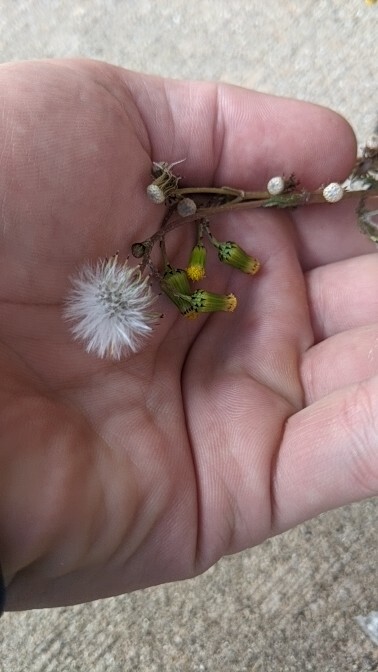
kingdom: Plantae
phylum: Tracheophyta
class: Magnoliopsida
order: Asterales
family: Asteraceae
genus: Senecio
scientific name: Senecio vulgaris
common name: Old-man-in-the-spring
